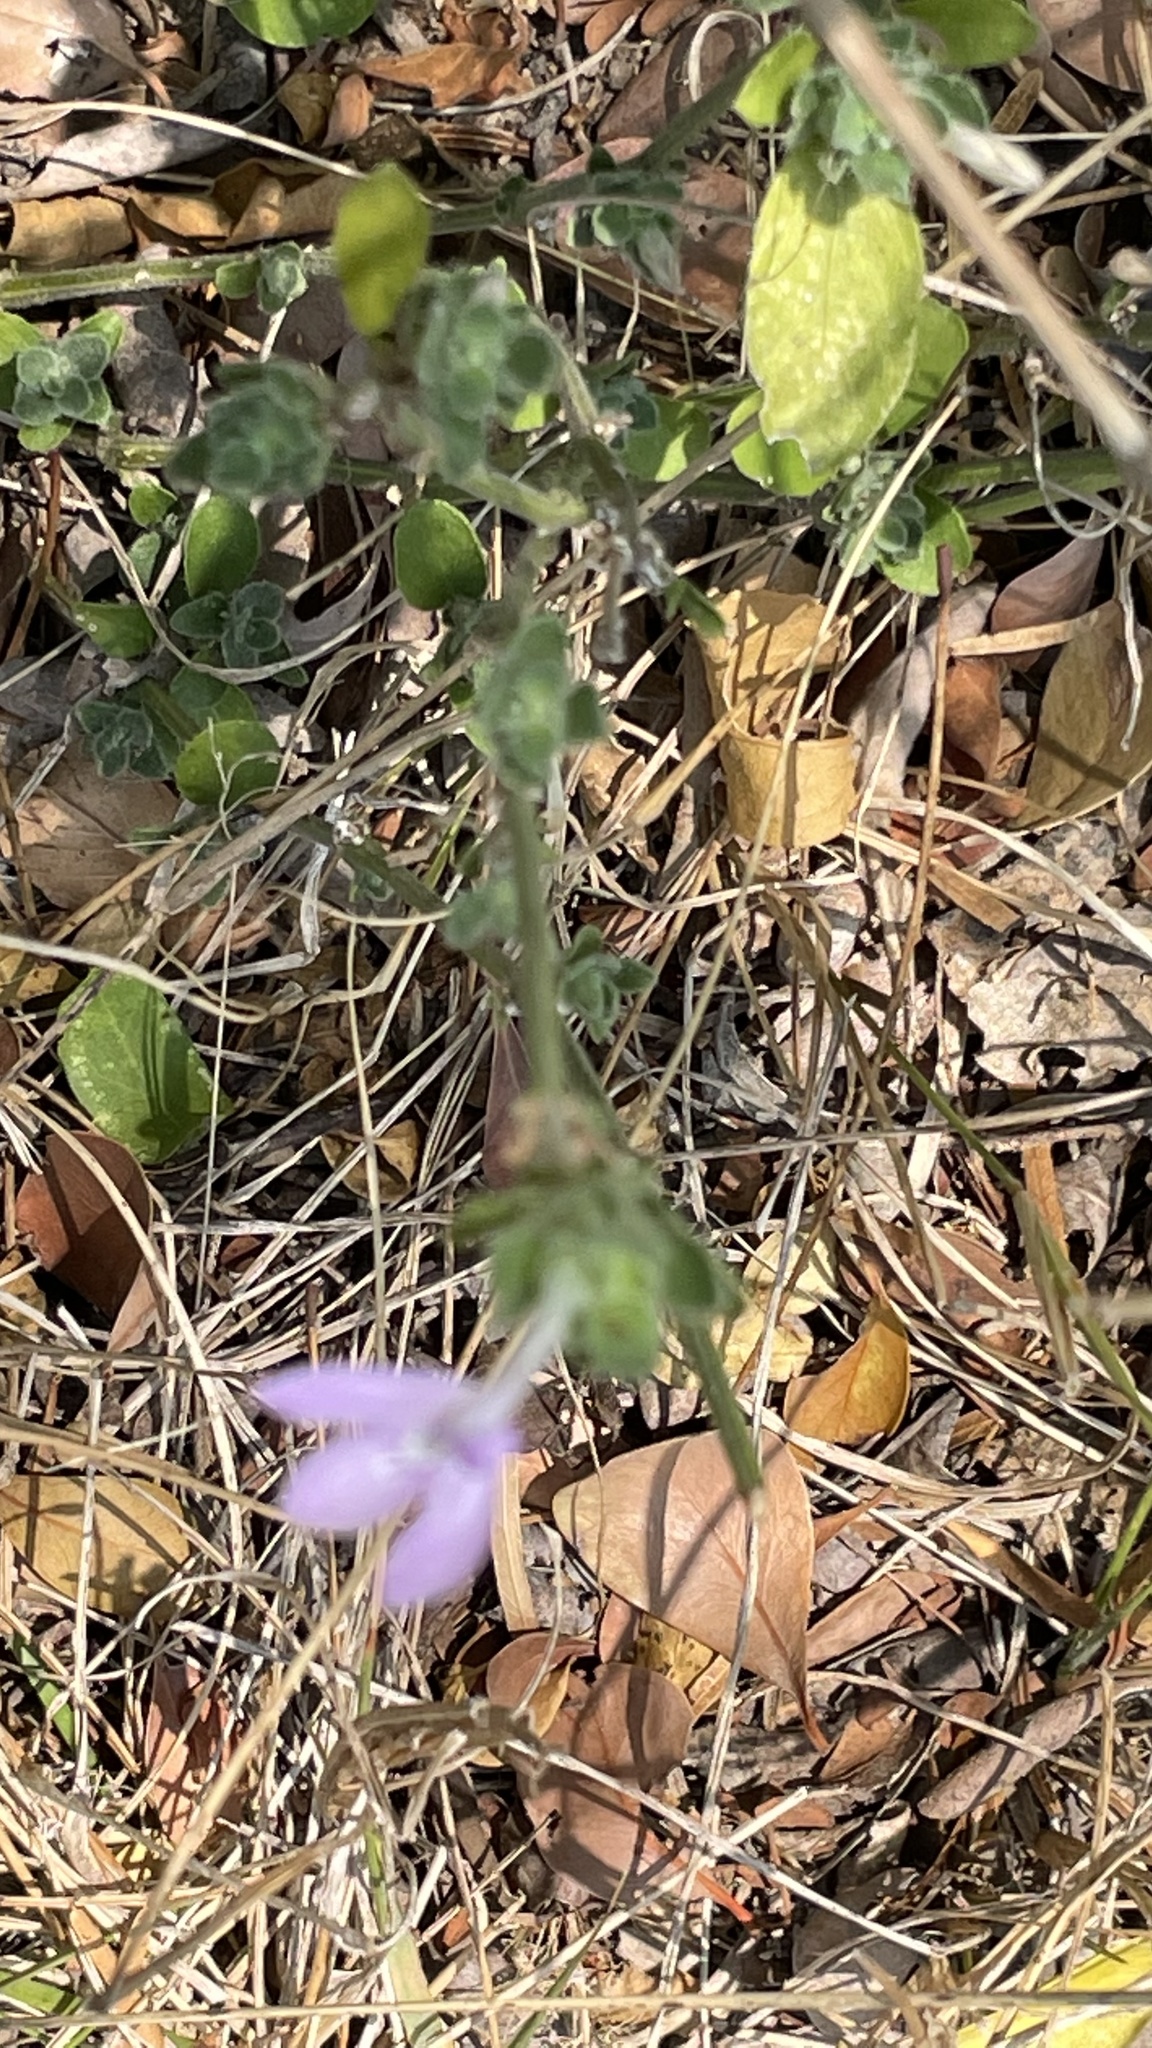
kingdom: Plantae
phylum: Tracheophyta
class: Magnoliopsida
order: Lamiales
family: Acanthaceae
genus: Justicia
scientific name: Justicia pilosella
